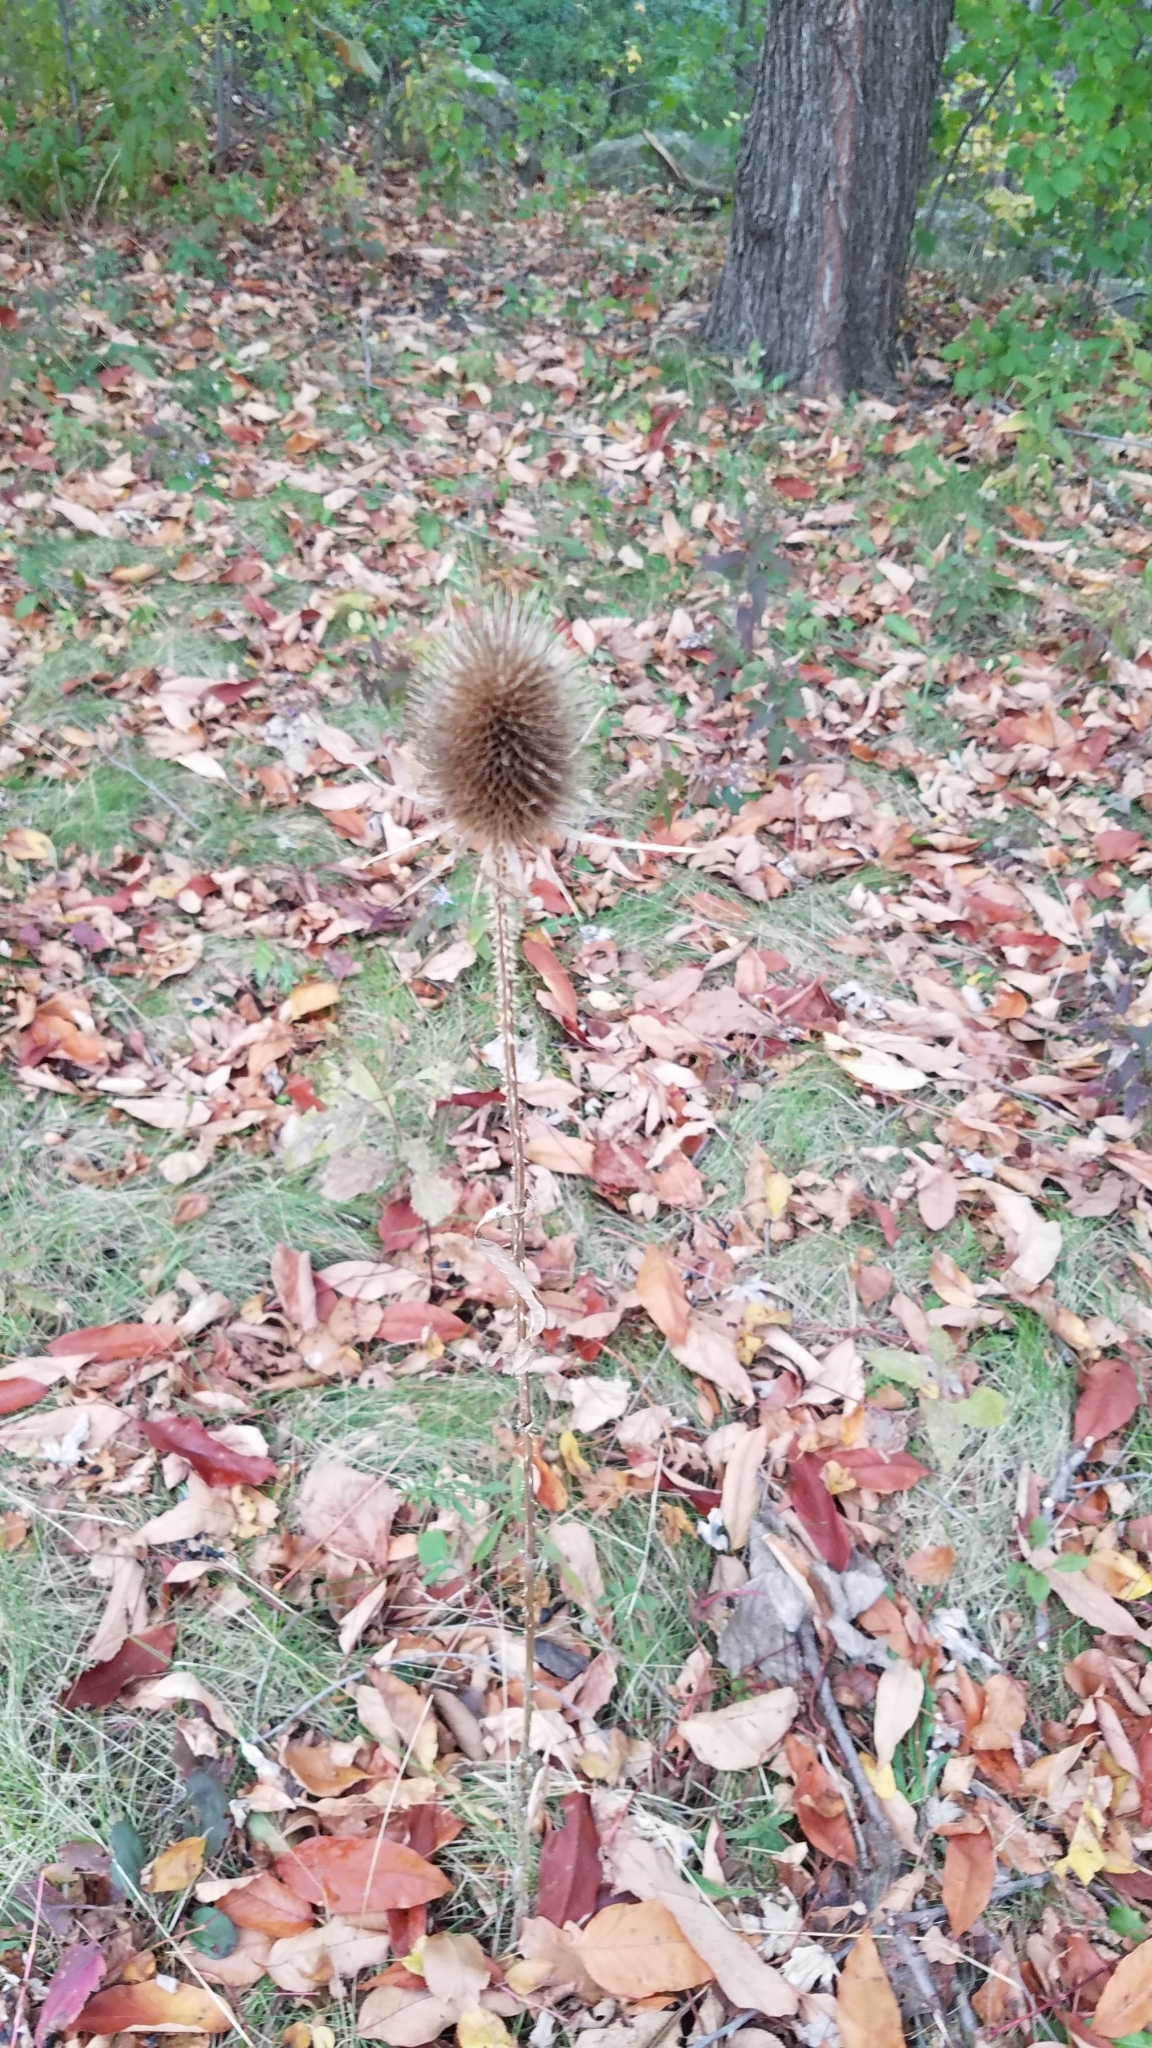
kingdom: Plantae
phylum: Tracheophyta
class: Magnoliopsida
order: Dipsacales
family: Caprifoliaceae
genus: Dipsacus
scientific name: Dipsacus fullonum
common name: Teasel
